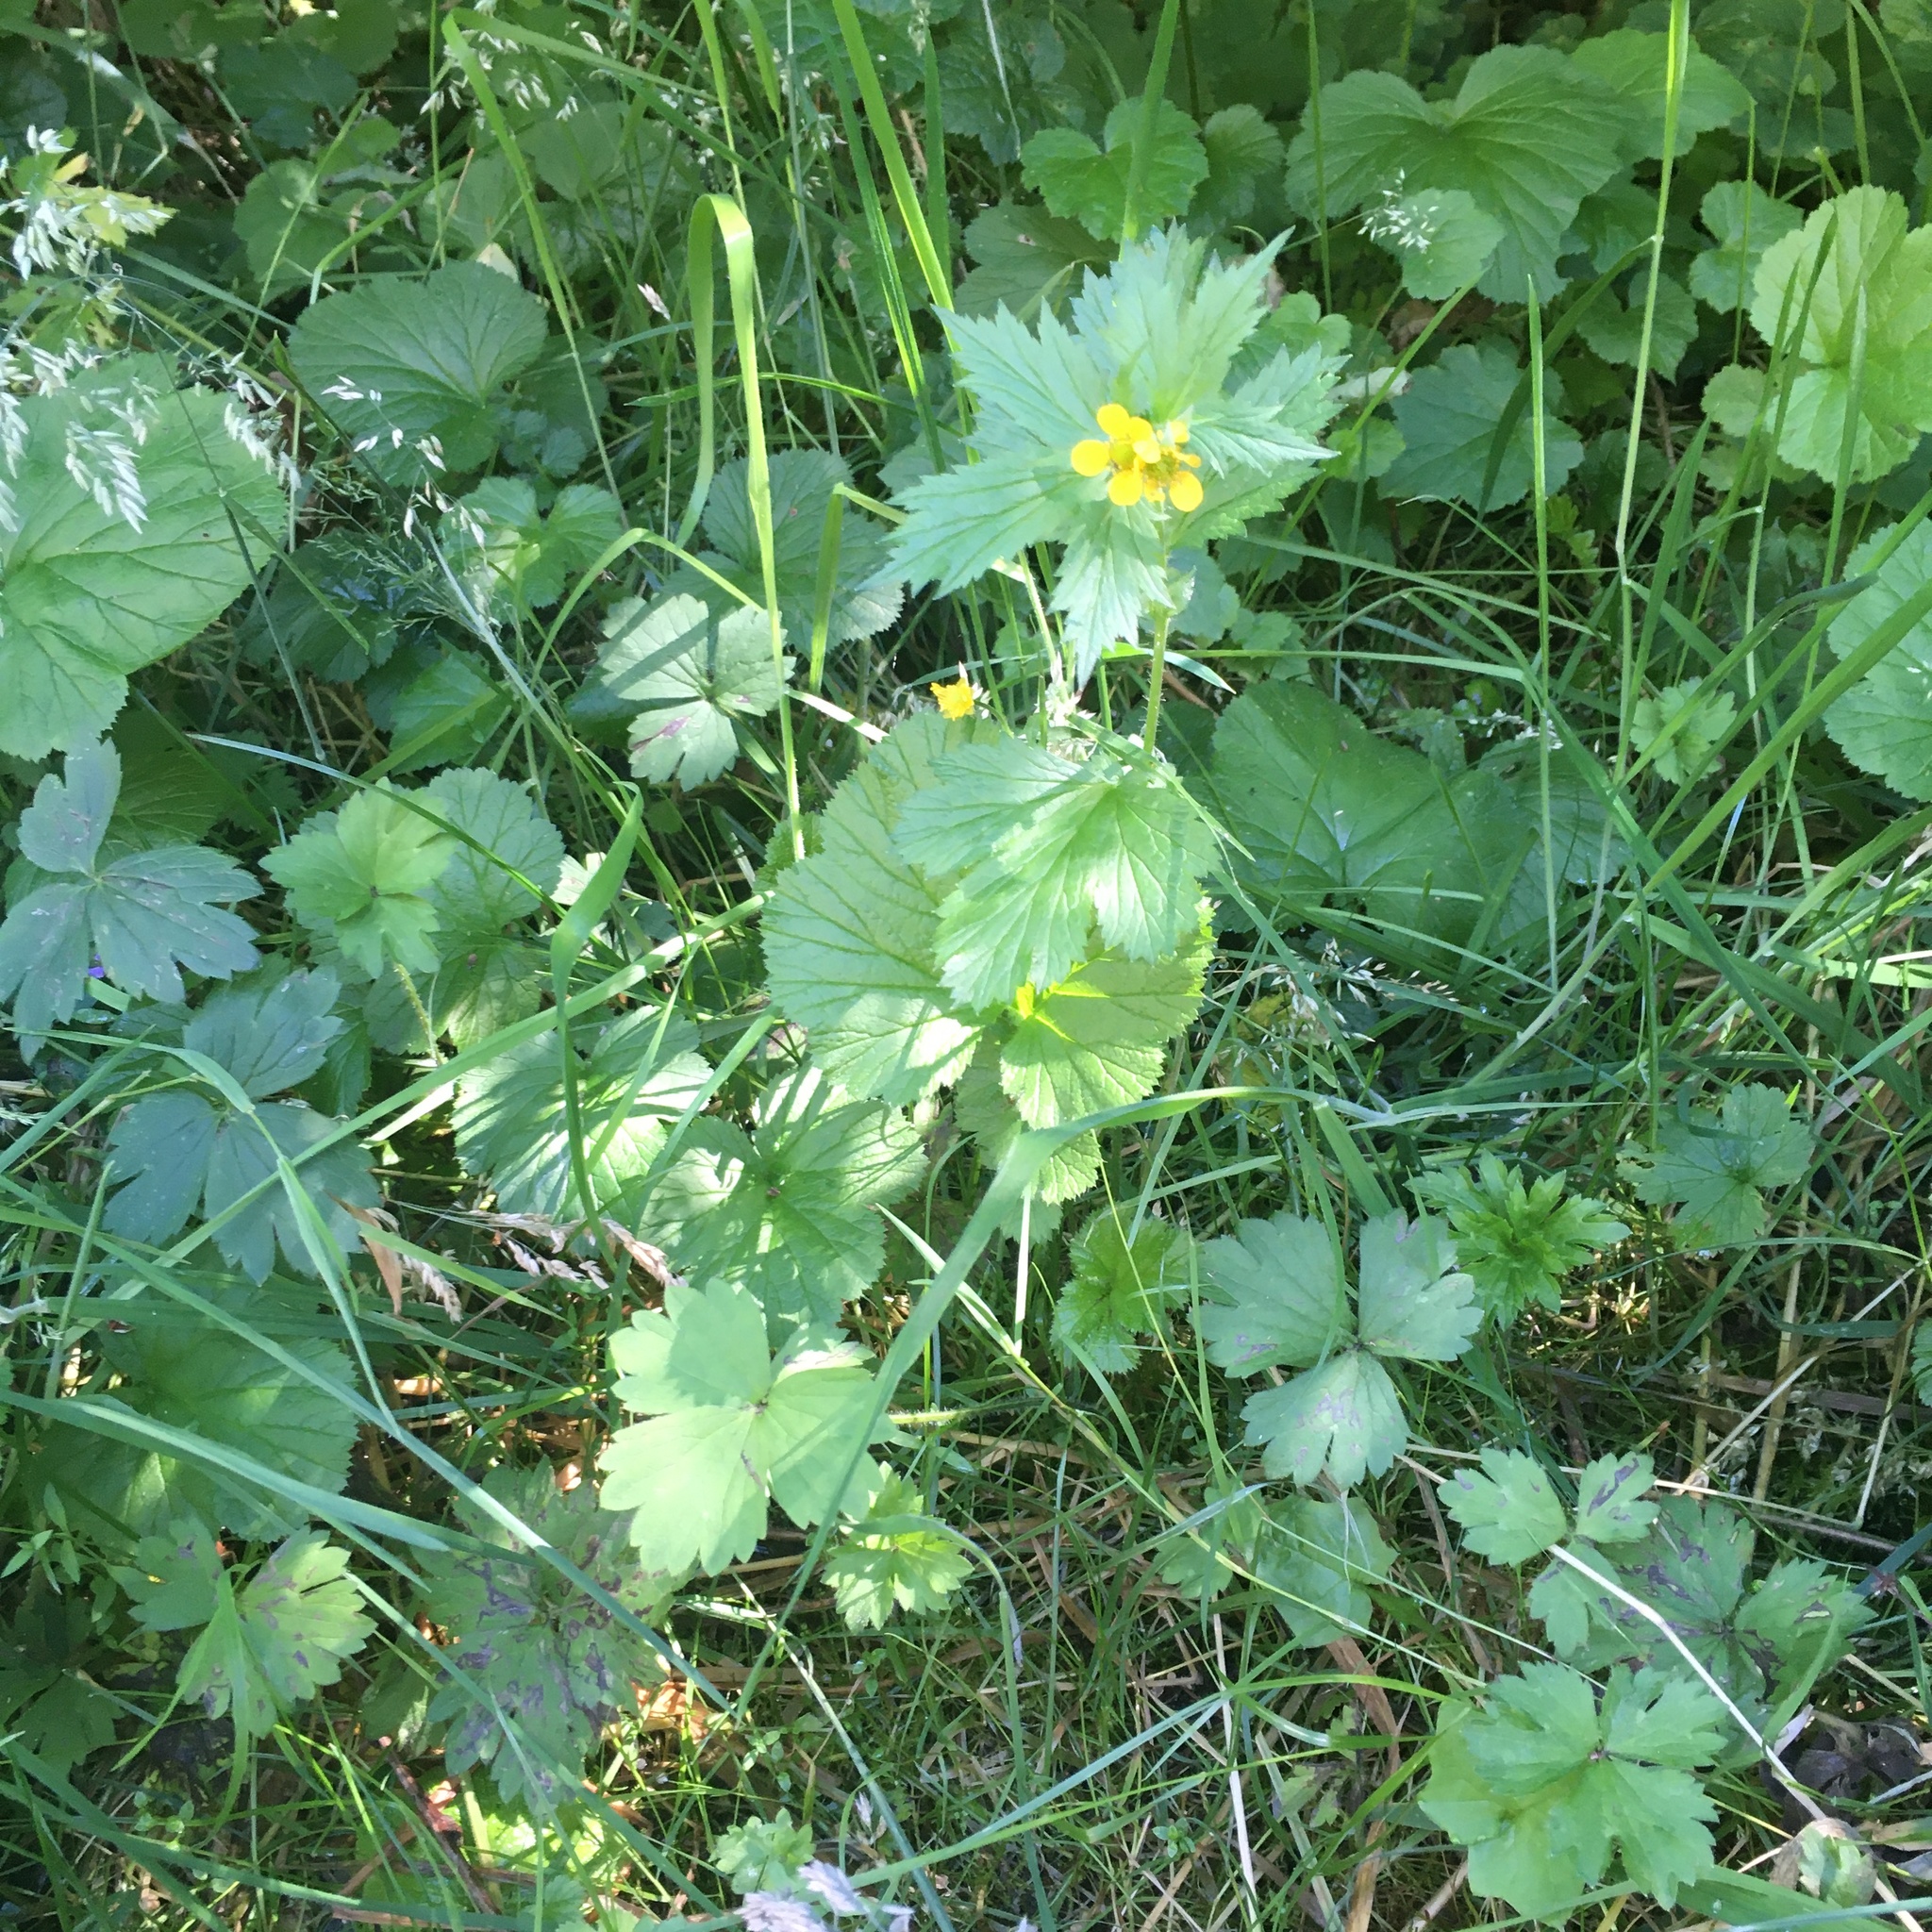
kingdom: Plantae
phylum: Tracheophyta
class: Magnoliopsida
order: Rosales
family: Rosaceae
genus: Geum
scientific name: Geum macrophyllum
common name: Large-leaved avens
